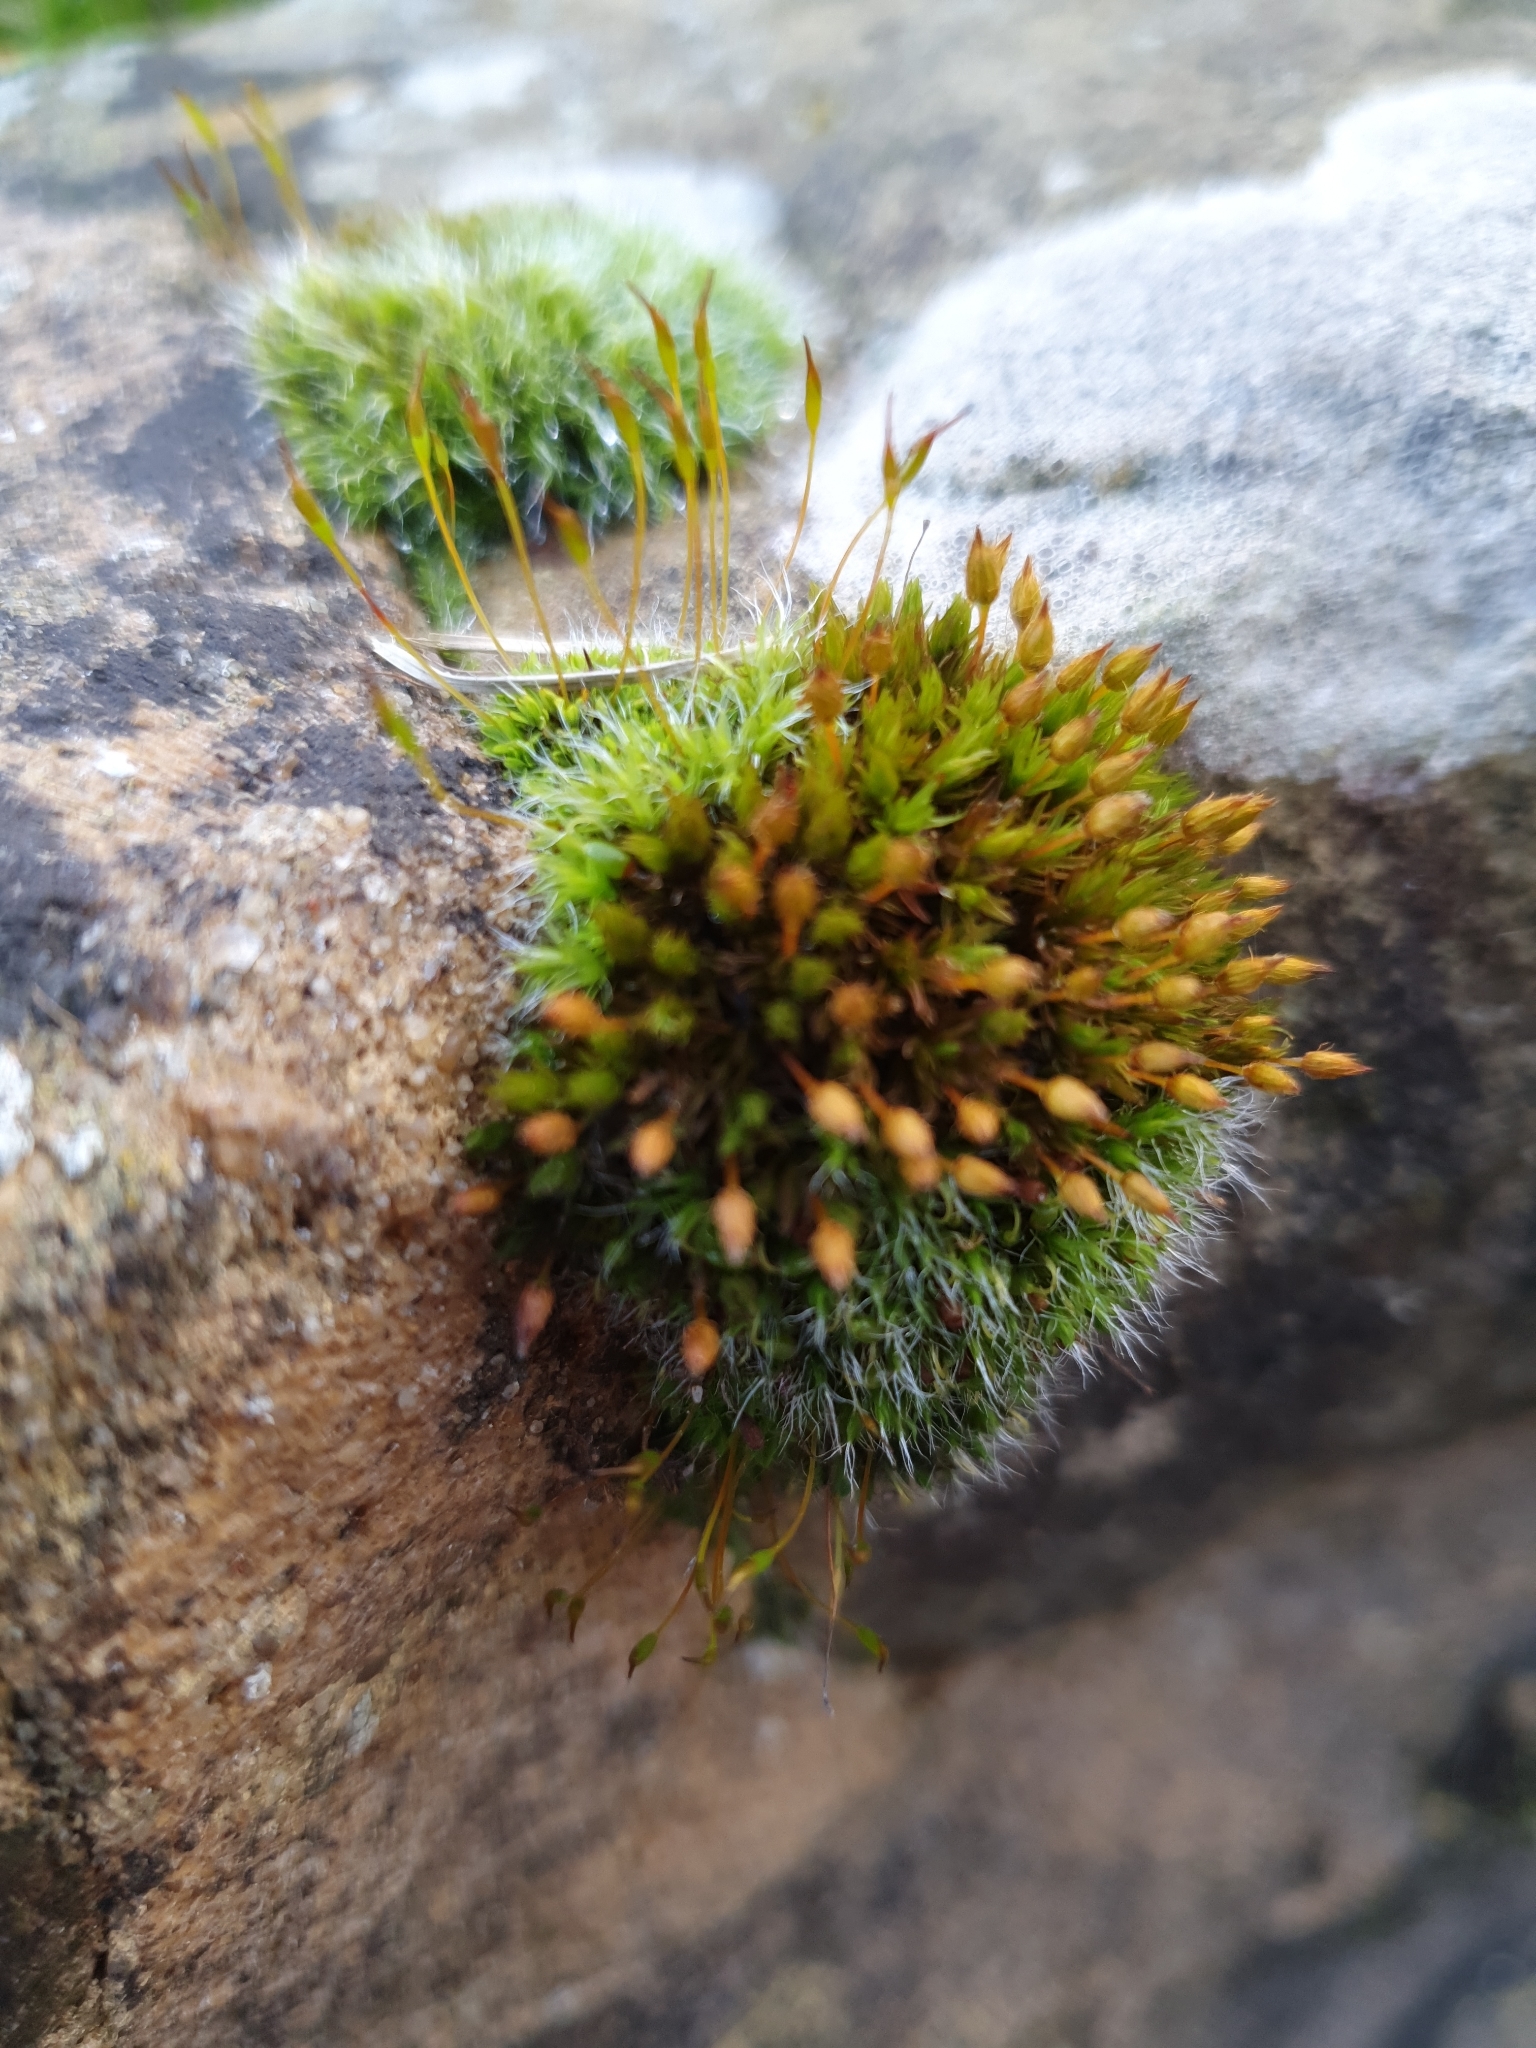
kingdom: Plantae
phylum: Bryophyta
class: Bryopsida
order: Orthotrichales
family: Orthotrichaceae
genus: Orthotrichum
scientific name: Orthotrichum anomalum
